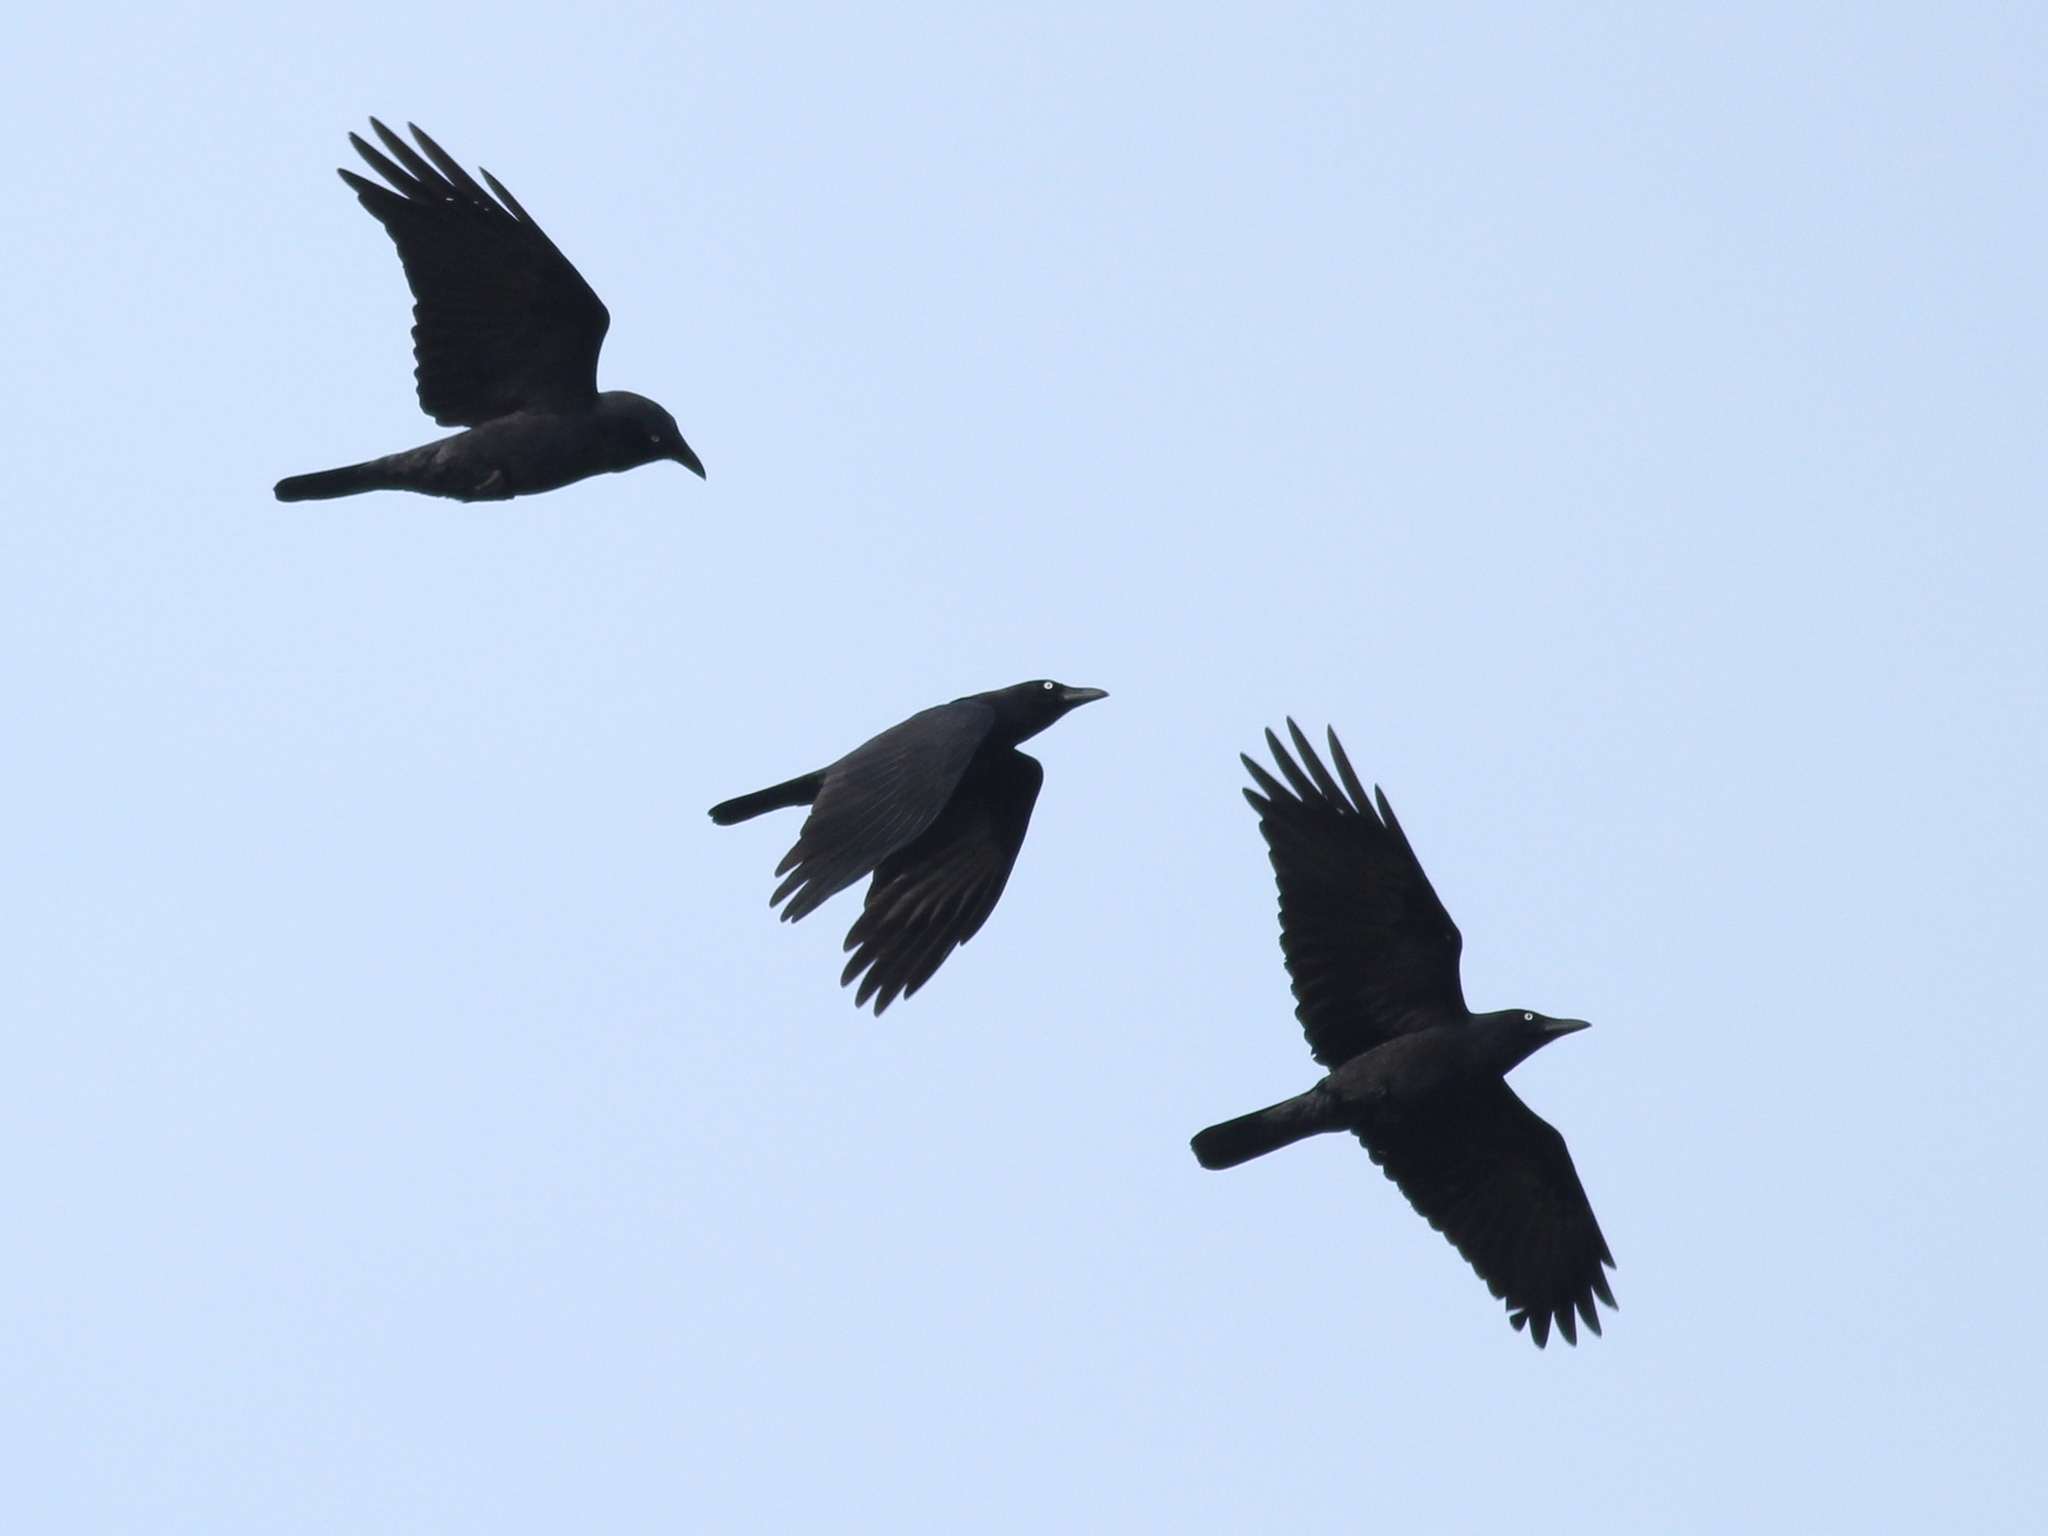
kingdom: Animalia
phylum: Chordata
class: Aves
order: Passeriformes
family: Corvidae
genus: Corvus
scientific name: Corvus tasmanicus
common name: Forest raven
